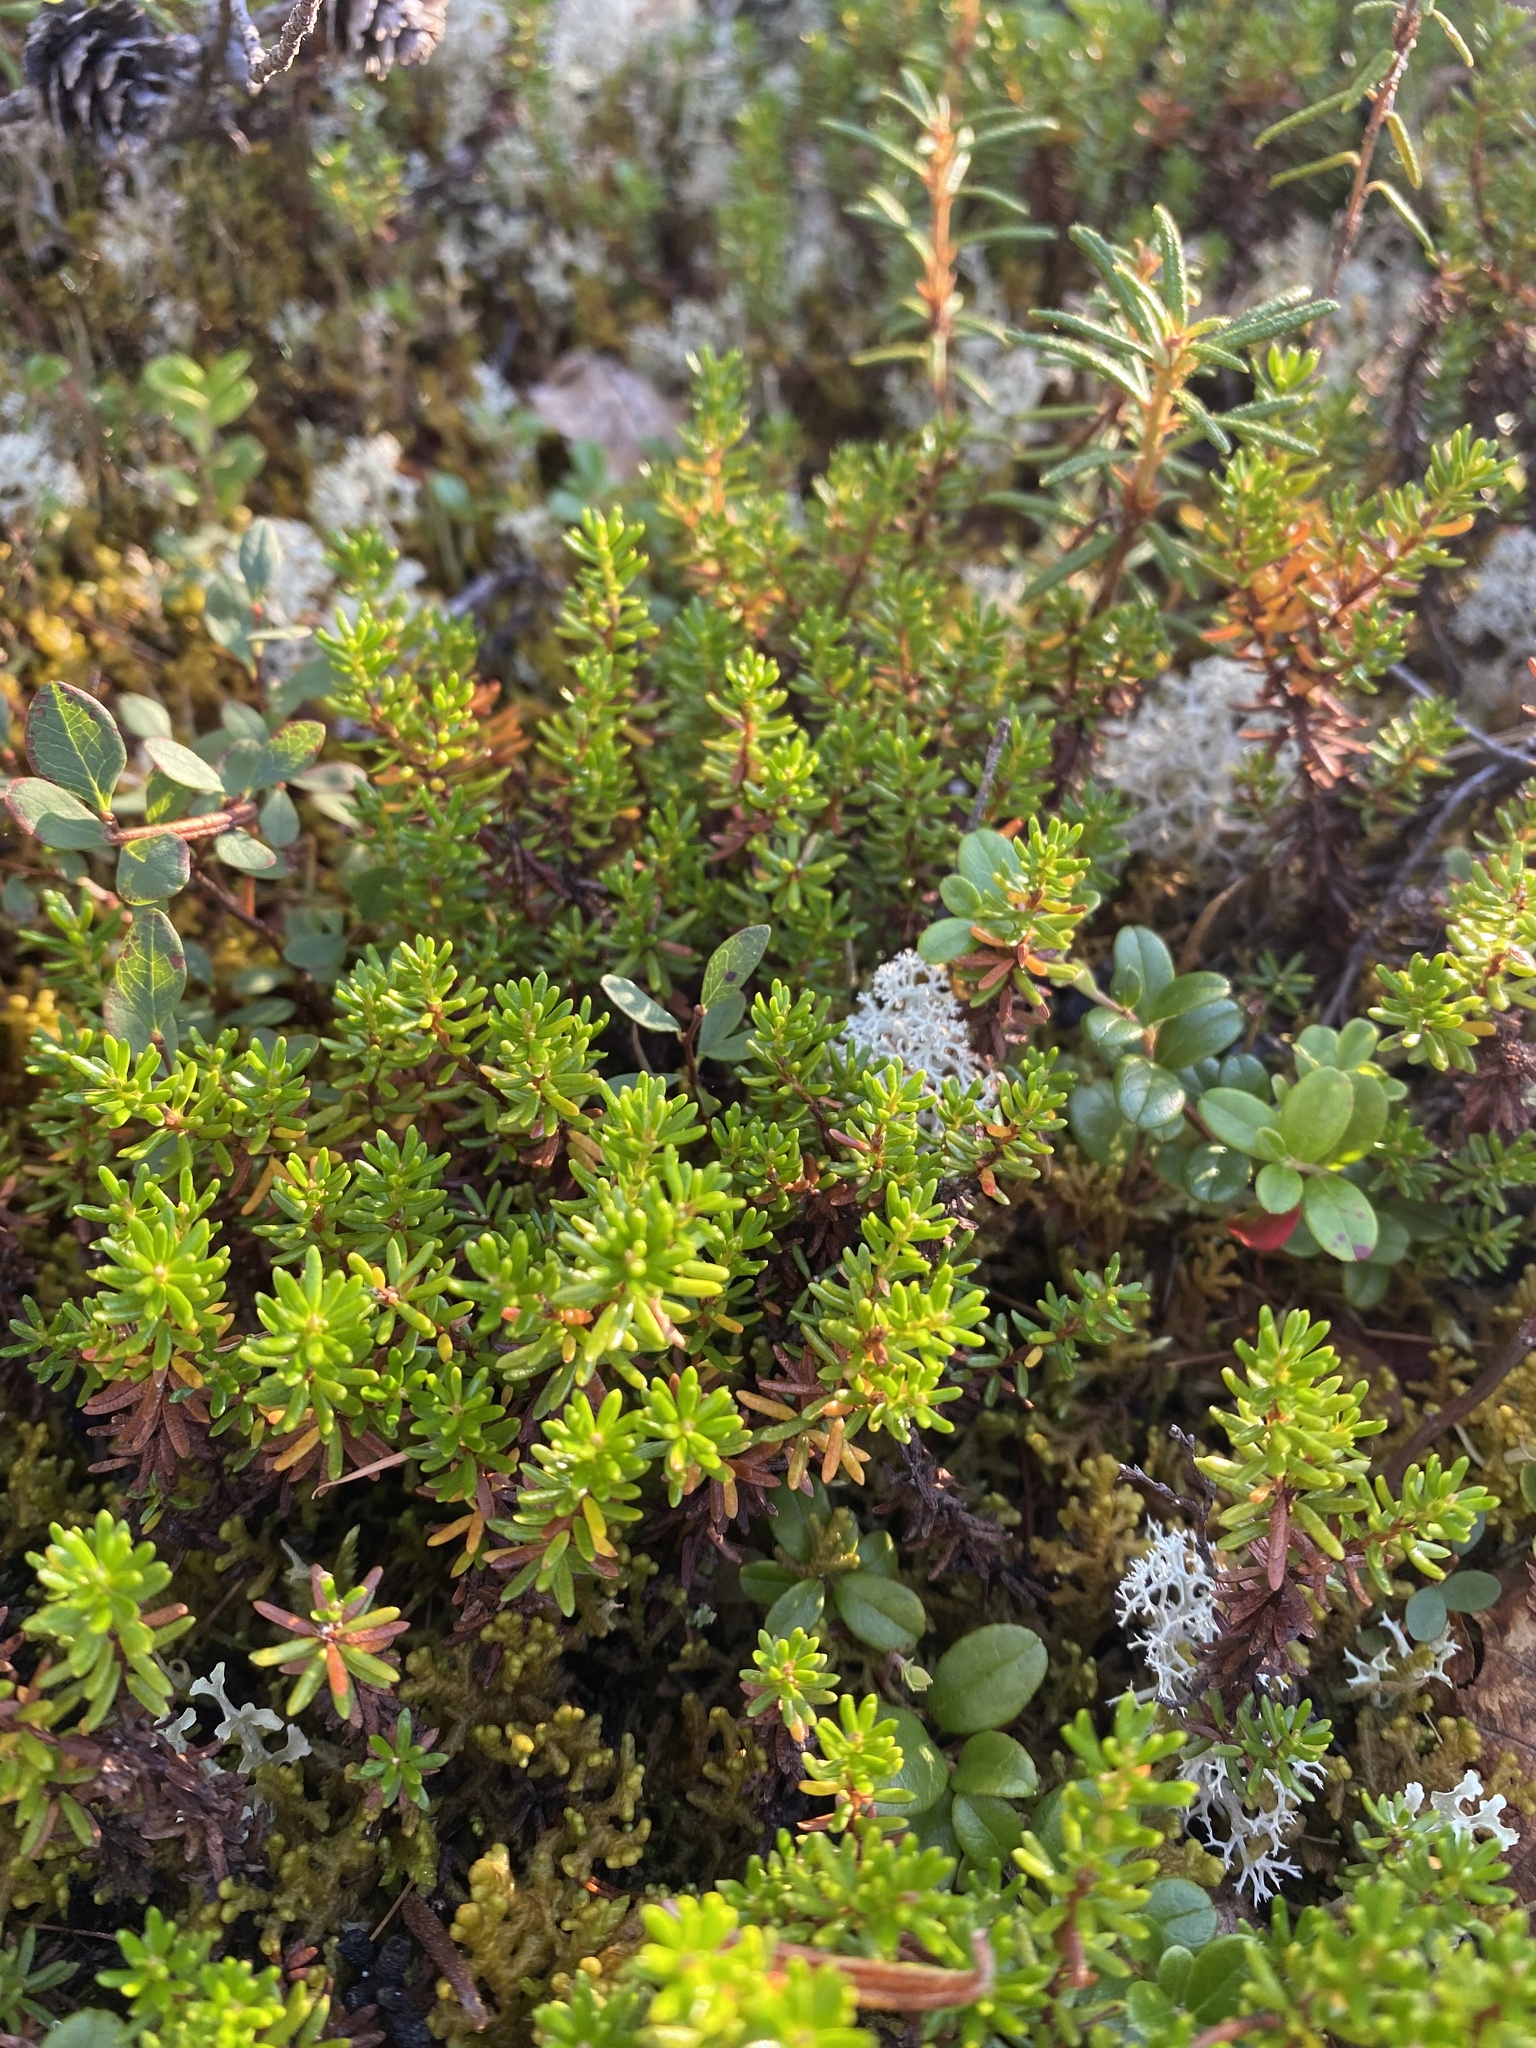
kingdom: Plantae
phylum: Tracheophyta
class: Magnoliopsida
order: Ericales
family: Ericaceae
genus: Empetrum
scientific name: Empetrum nigrum
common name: Black crowberry
